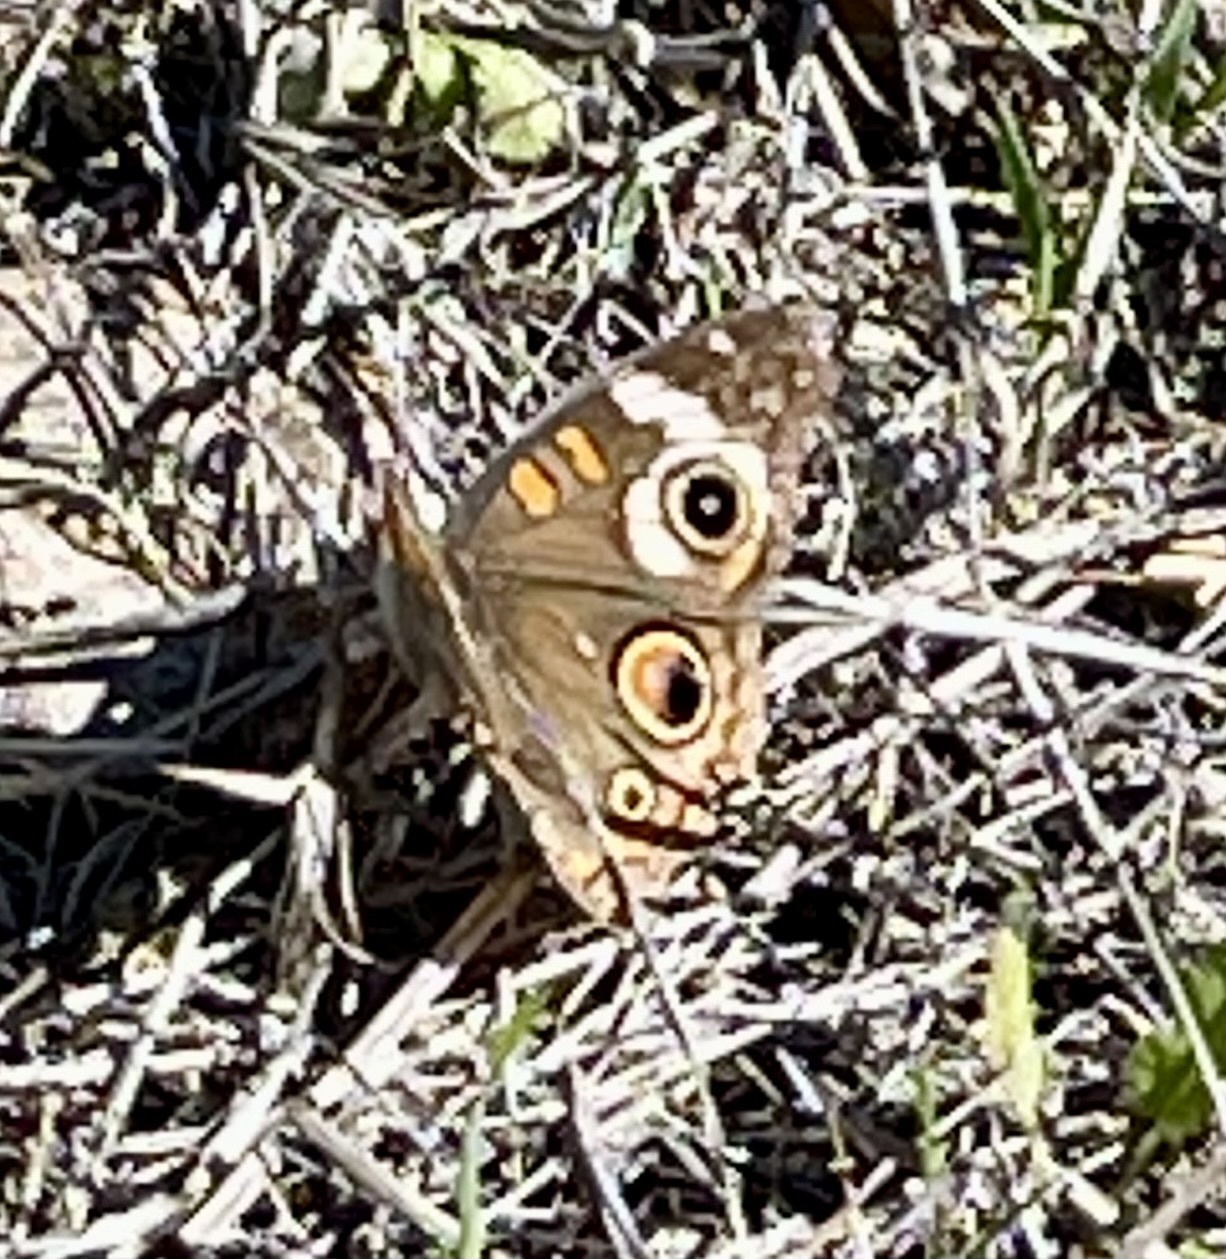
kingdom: Animalia
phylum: Arthropoda
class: Insecta
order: Lepidoptera
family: Nymphalidae
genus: Junonia
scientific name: Junonia grisea
